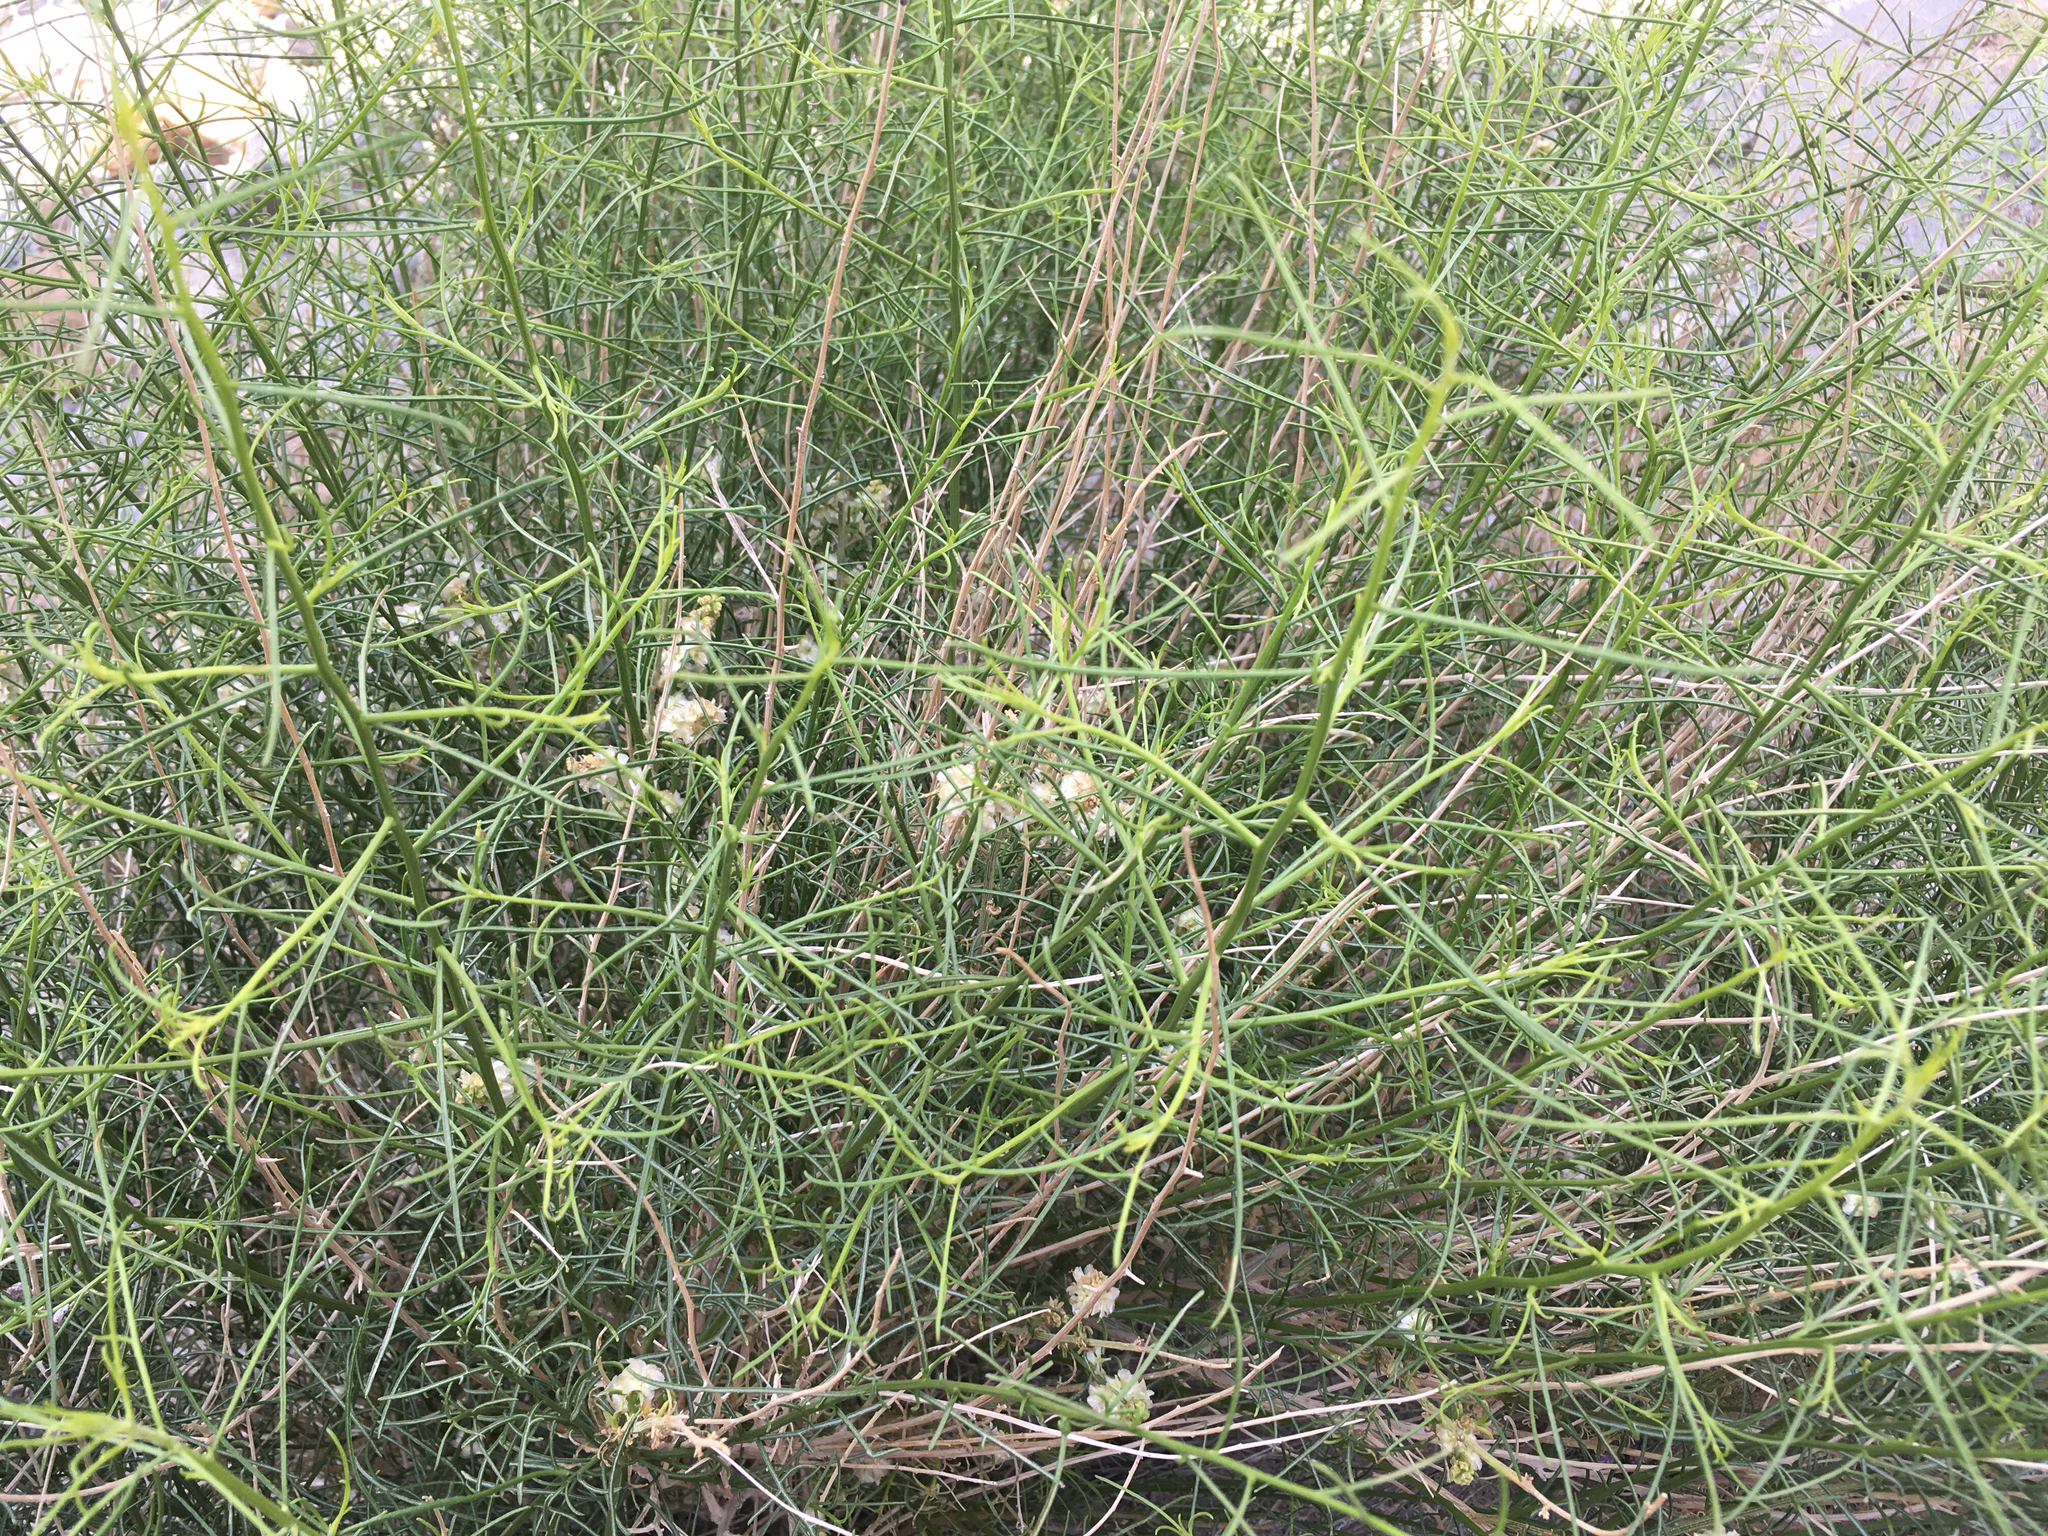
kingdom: Plantae
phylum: Tracheophyta
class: Magnoliopsida
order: Asterales
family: Asteraceae
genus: Ambrosia
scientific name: Ambrosia salsola
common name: Burrobrush
